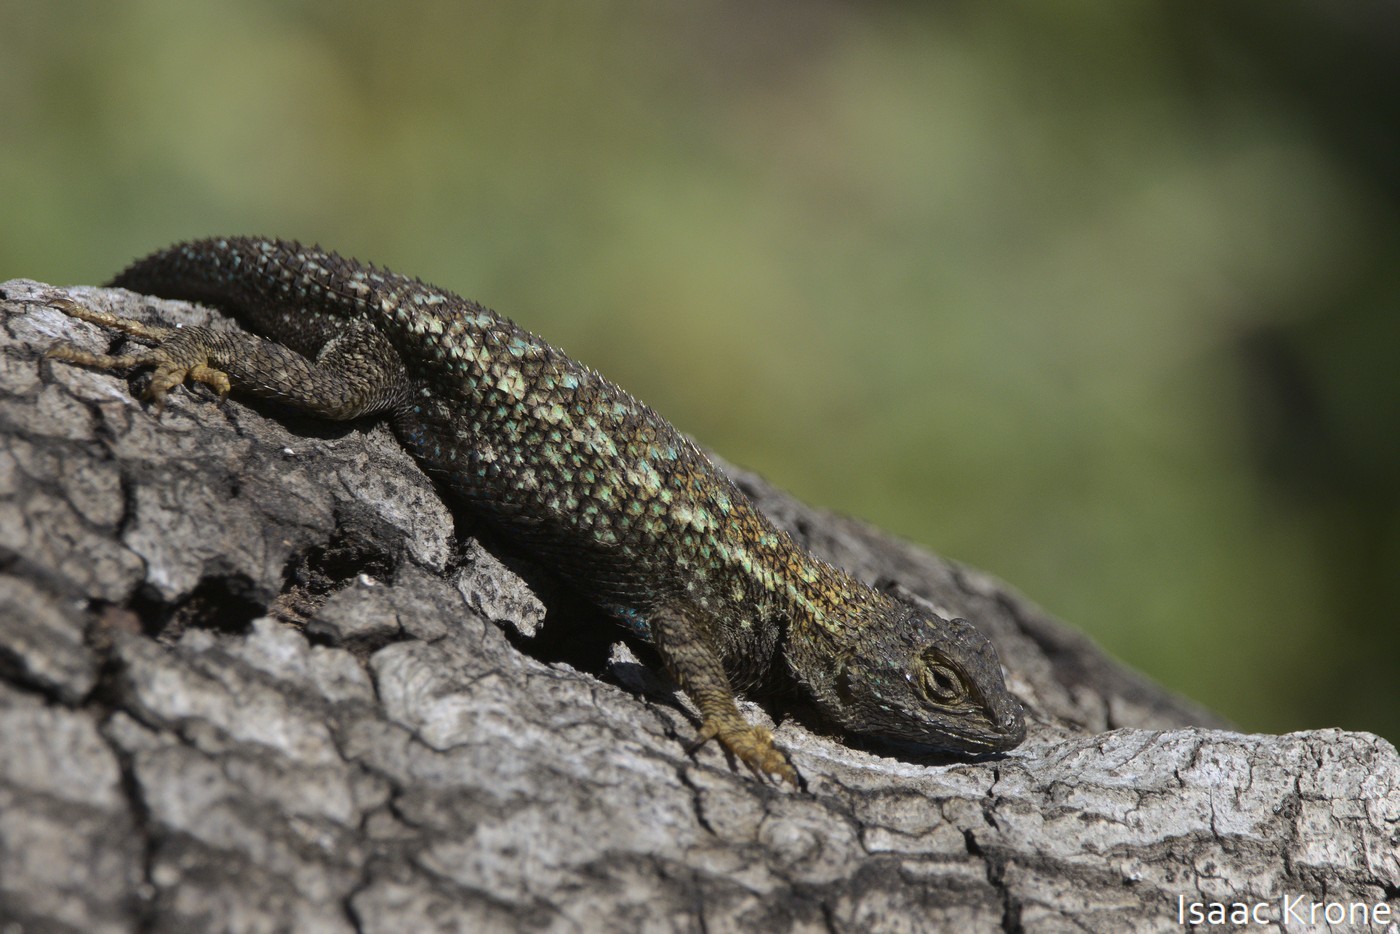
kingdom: Animalia
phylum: Chordata
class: Squamata
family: Phrynosomatidae
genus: Sceloporus
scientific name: Sceloporus occidentalis
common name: Western fence lizard
